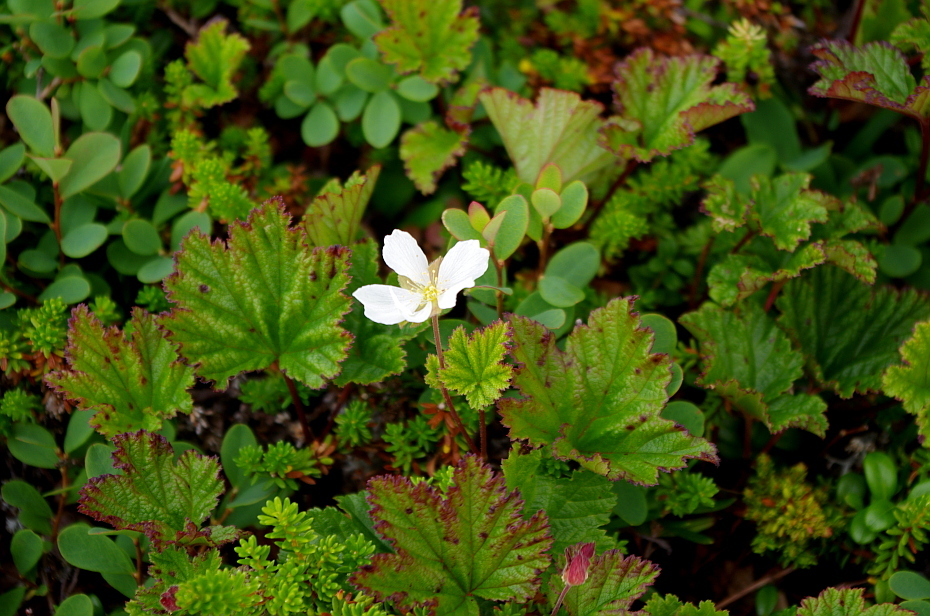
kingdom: Plantae
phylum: Tracheophyta
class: Magnoliopsida
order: Rosales
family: Rosaceae
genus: Rubus
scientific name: Rubus chamaemorus
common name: Cloudberry
